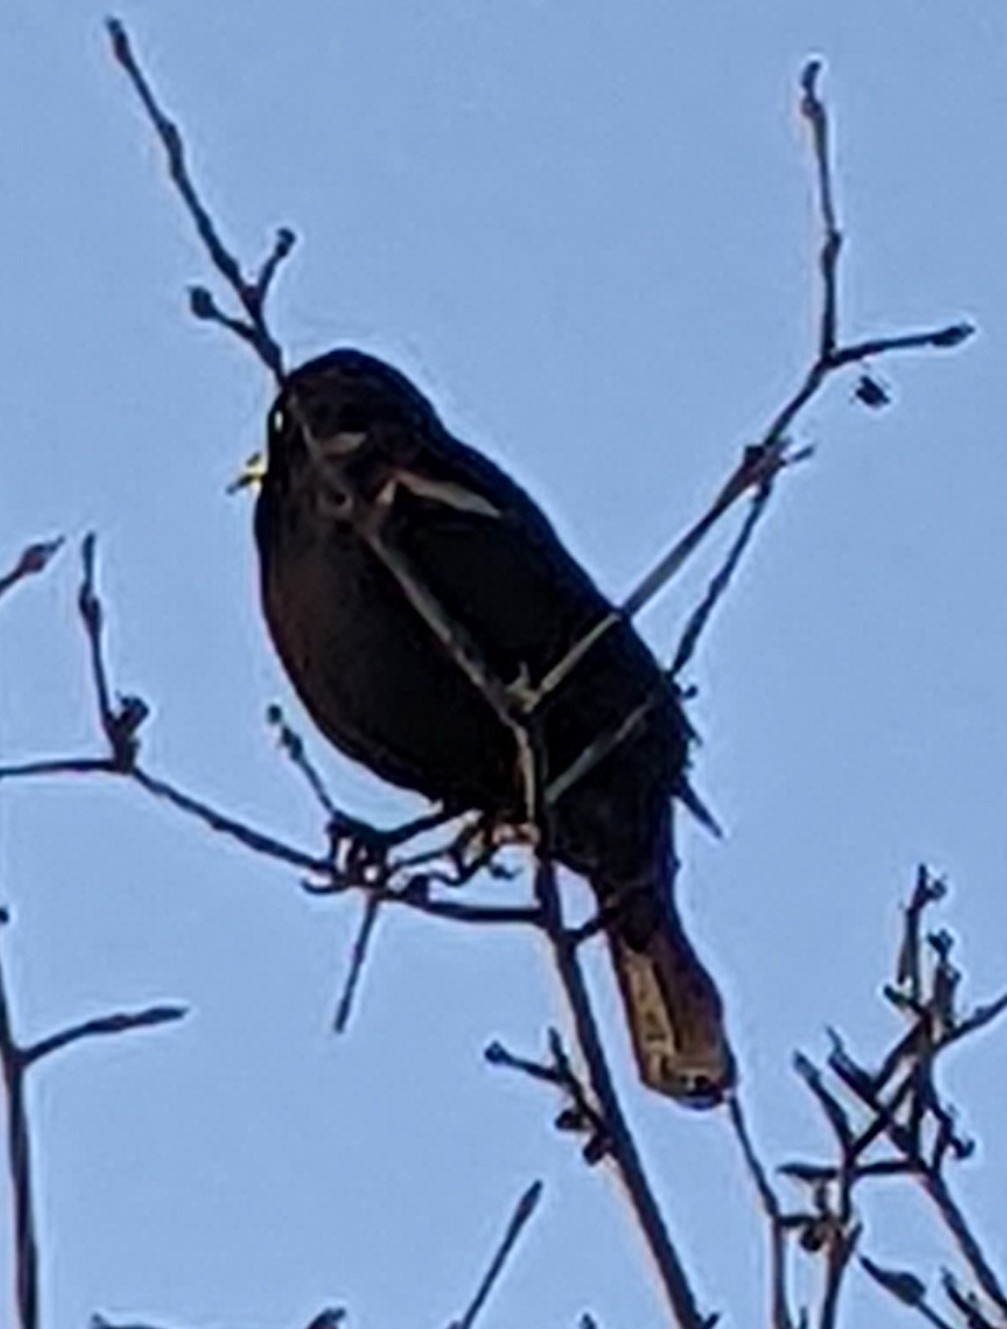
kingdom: Animalia
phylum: Chordata
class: Aves
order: Passeriformes
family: Icteridae
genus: Agelaius
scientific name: Agelaius phoeniceus
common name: Red-winged blackbird
